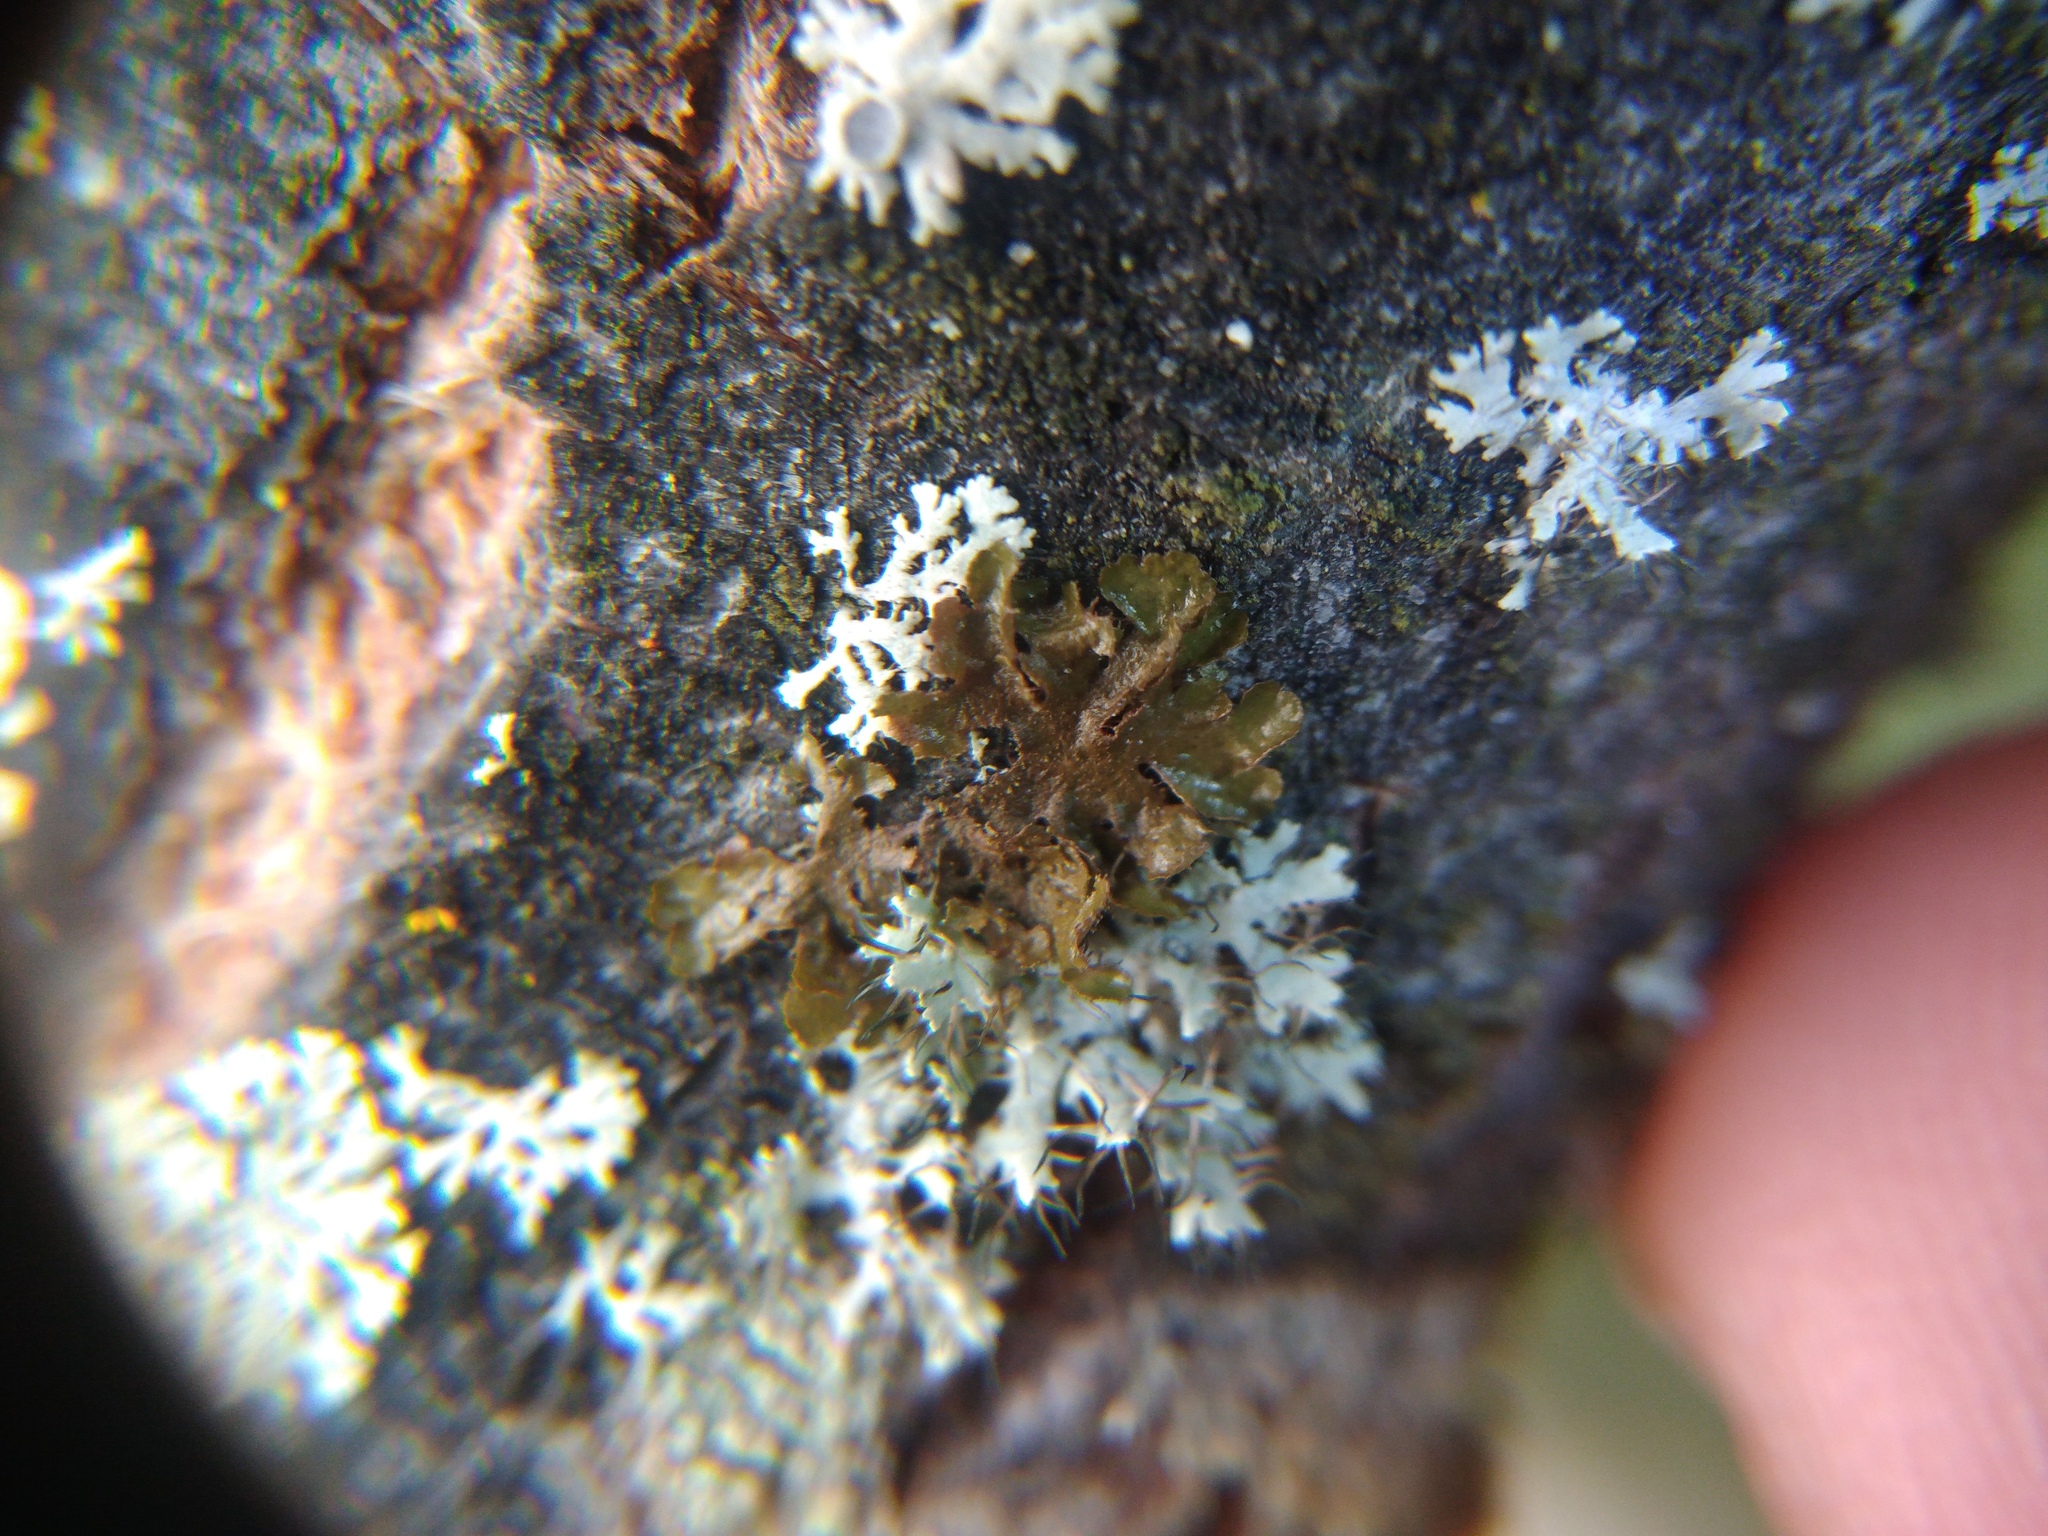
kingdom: Fungi
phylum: Ascomycota
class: Lecanoromycetes
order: Lecanorales
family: Parmeliaceae
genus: Melanohalea
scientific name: Melanohalea exasperatula
